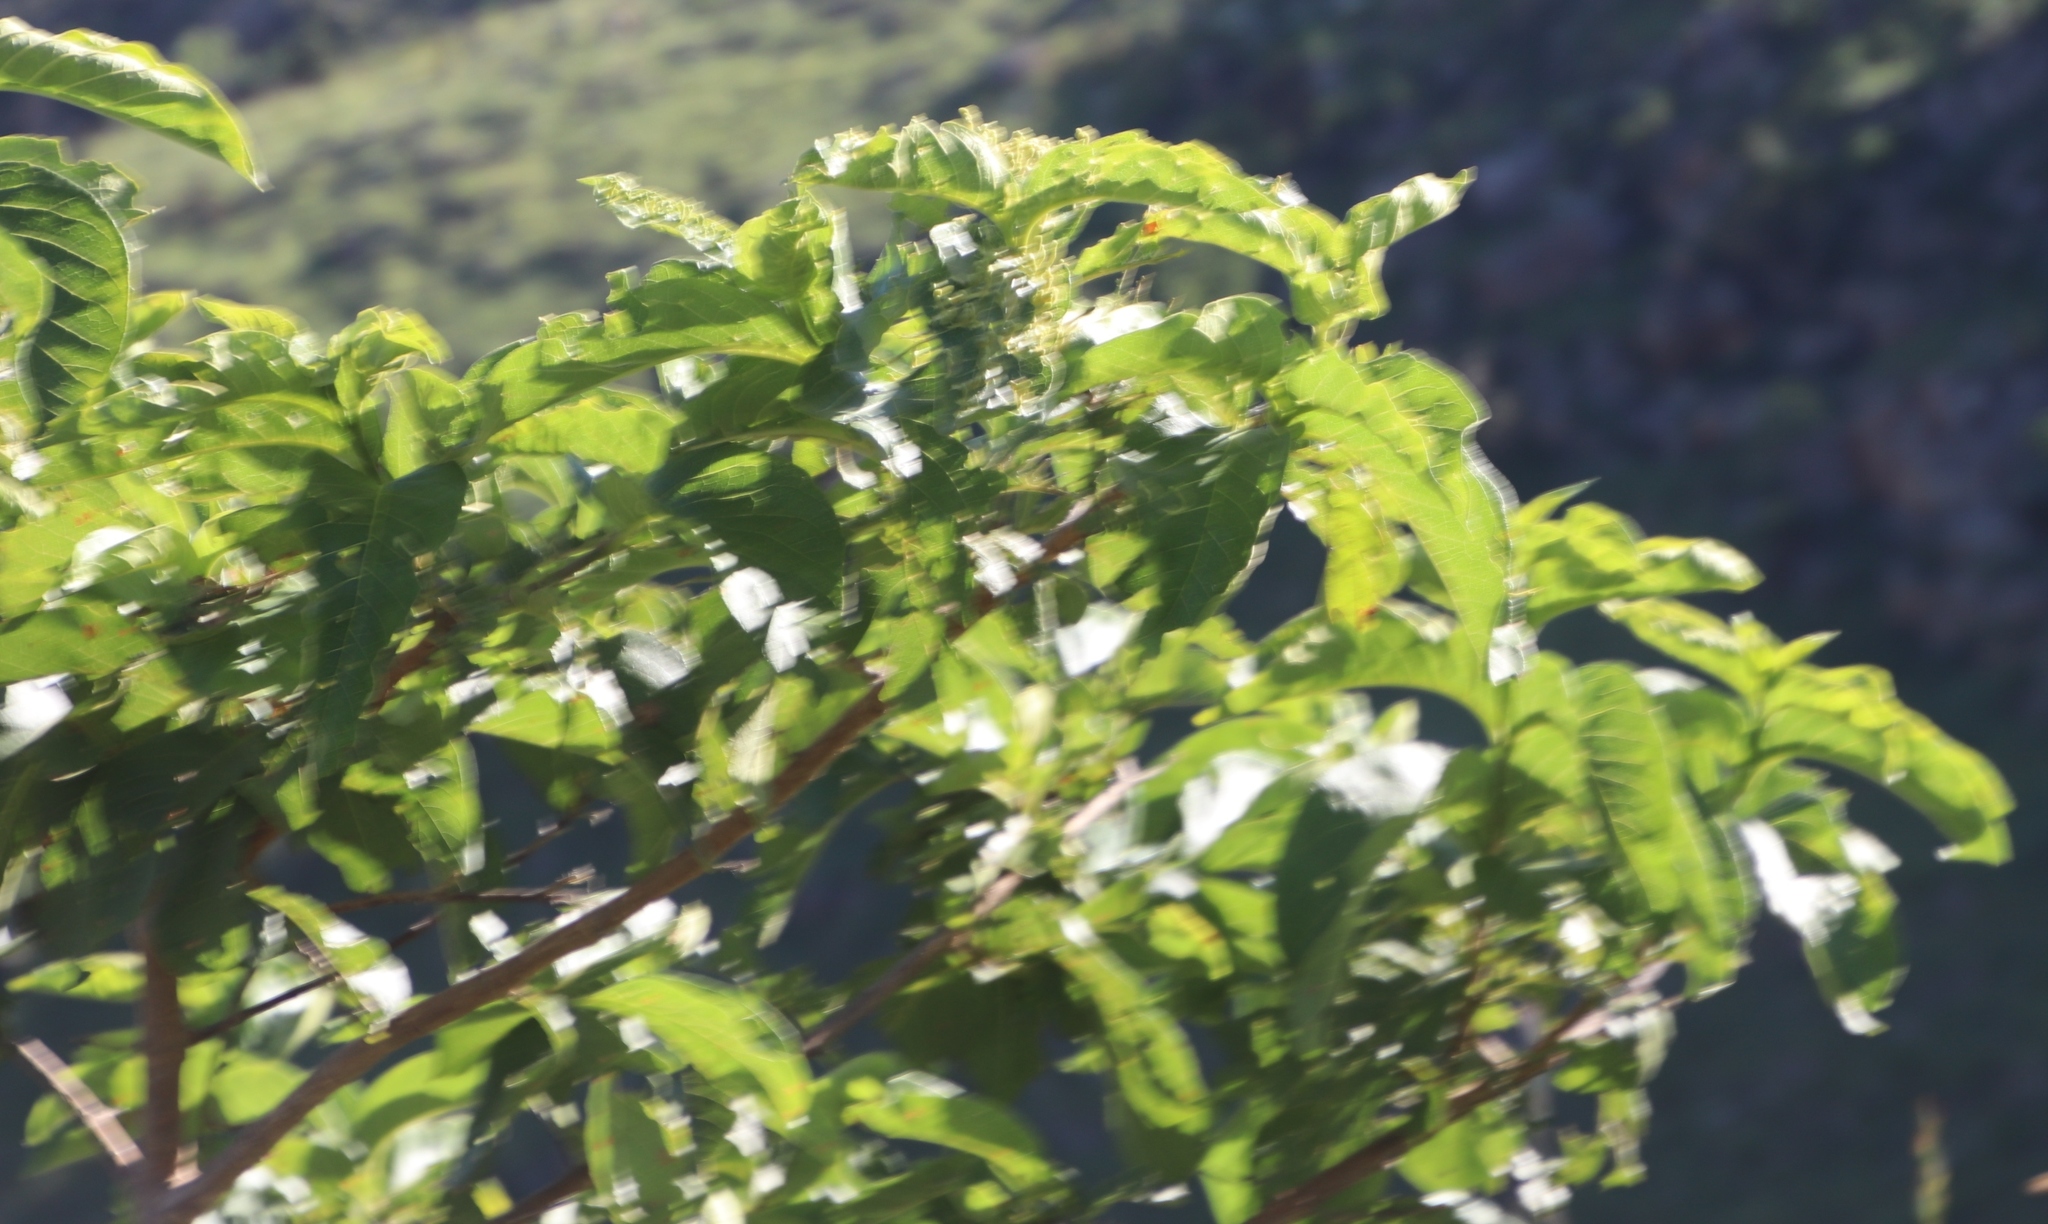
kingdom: Plantae
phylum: Tracheophyta
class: Magnoliopsida
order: Gentianales
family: Rubiaceae
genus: Vangueria
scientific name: Vangueria infausta
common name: Medlar
